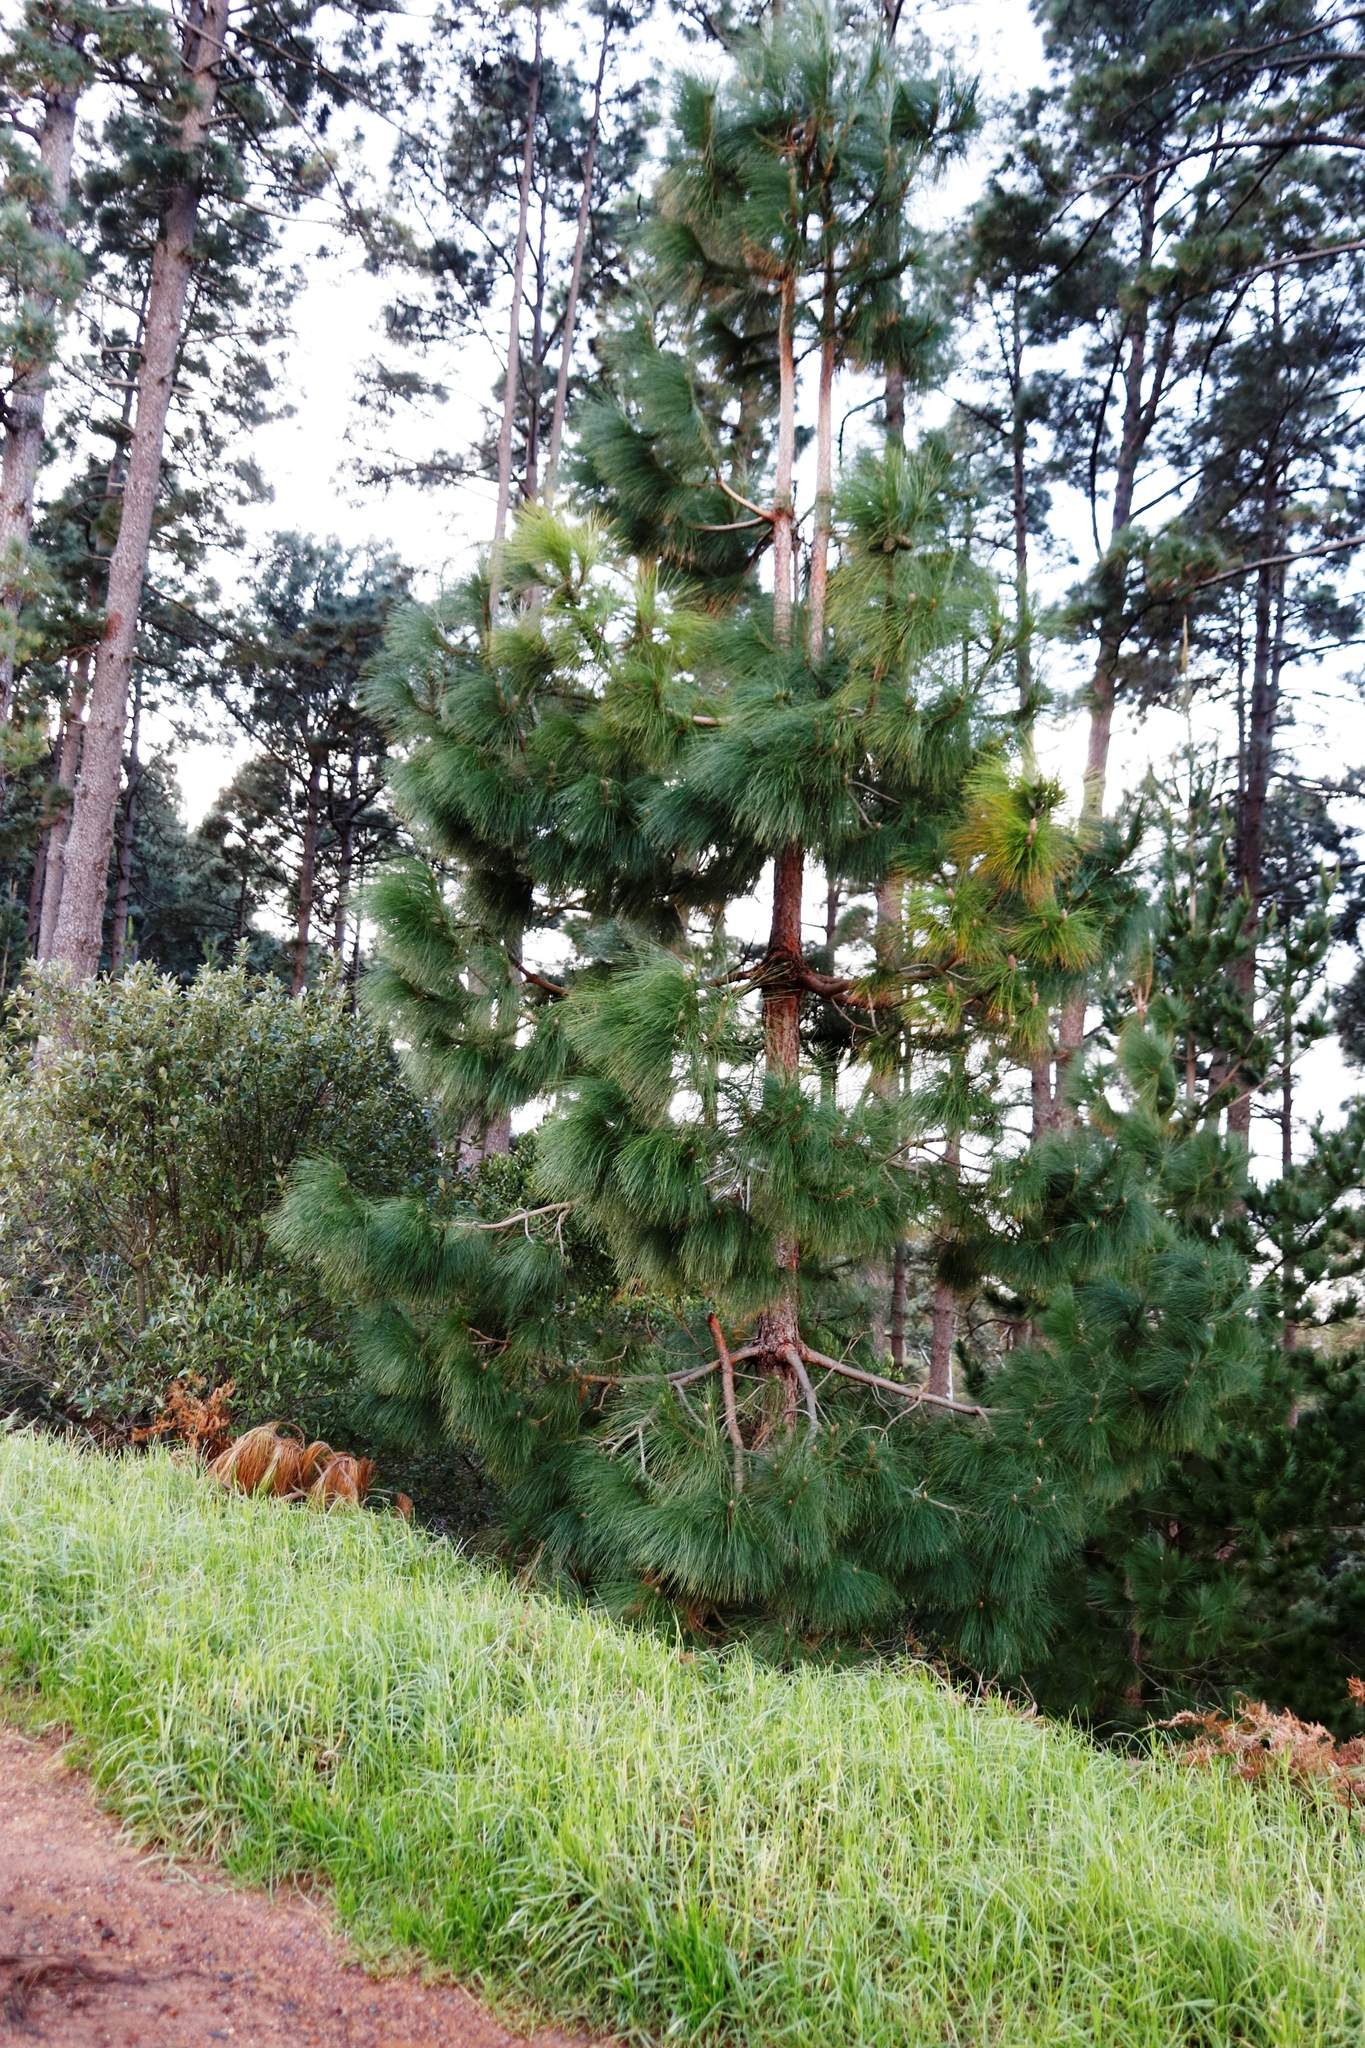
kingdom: Plantae
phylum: Tracheophyta
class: Pinopsida
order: Pinales
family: Pinaceae
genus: Pinus
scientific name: Pinus canariensis
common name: Canary islands pine
